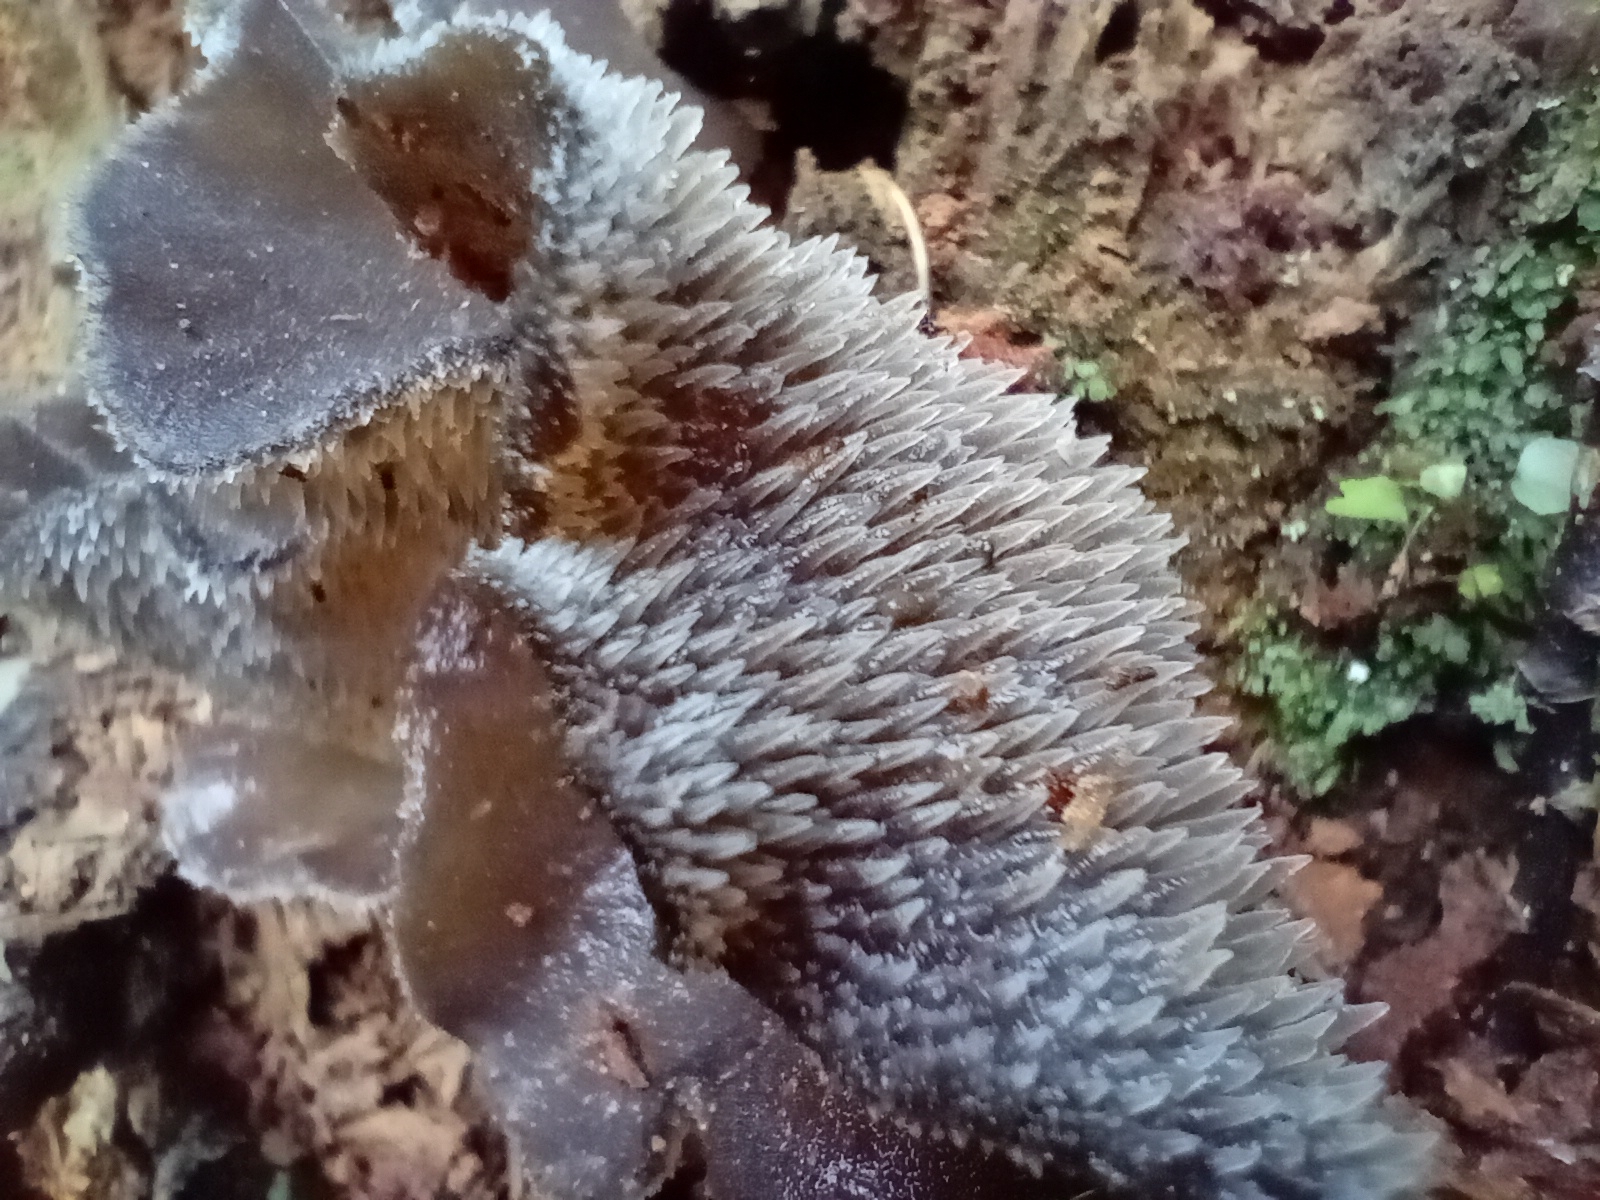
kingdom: Fungi
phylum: Basidiomycota
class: Agaricomycetes
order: Auriculariales
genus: Pseudohydnum
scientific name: Pseudohydnum orbiculare
